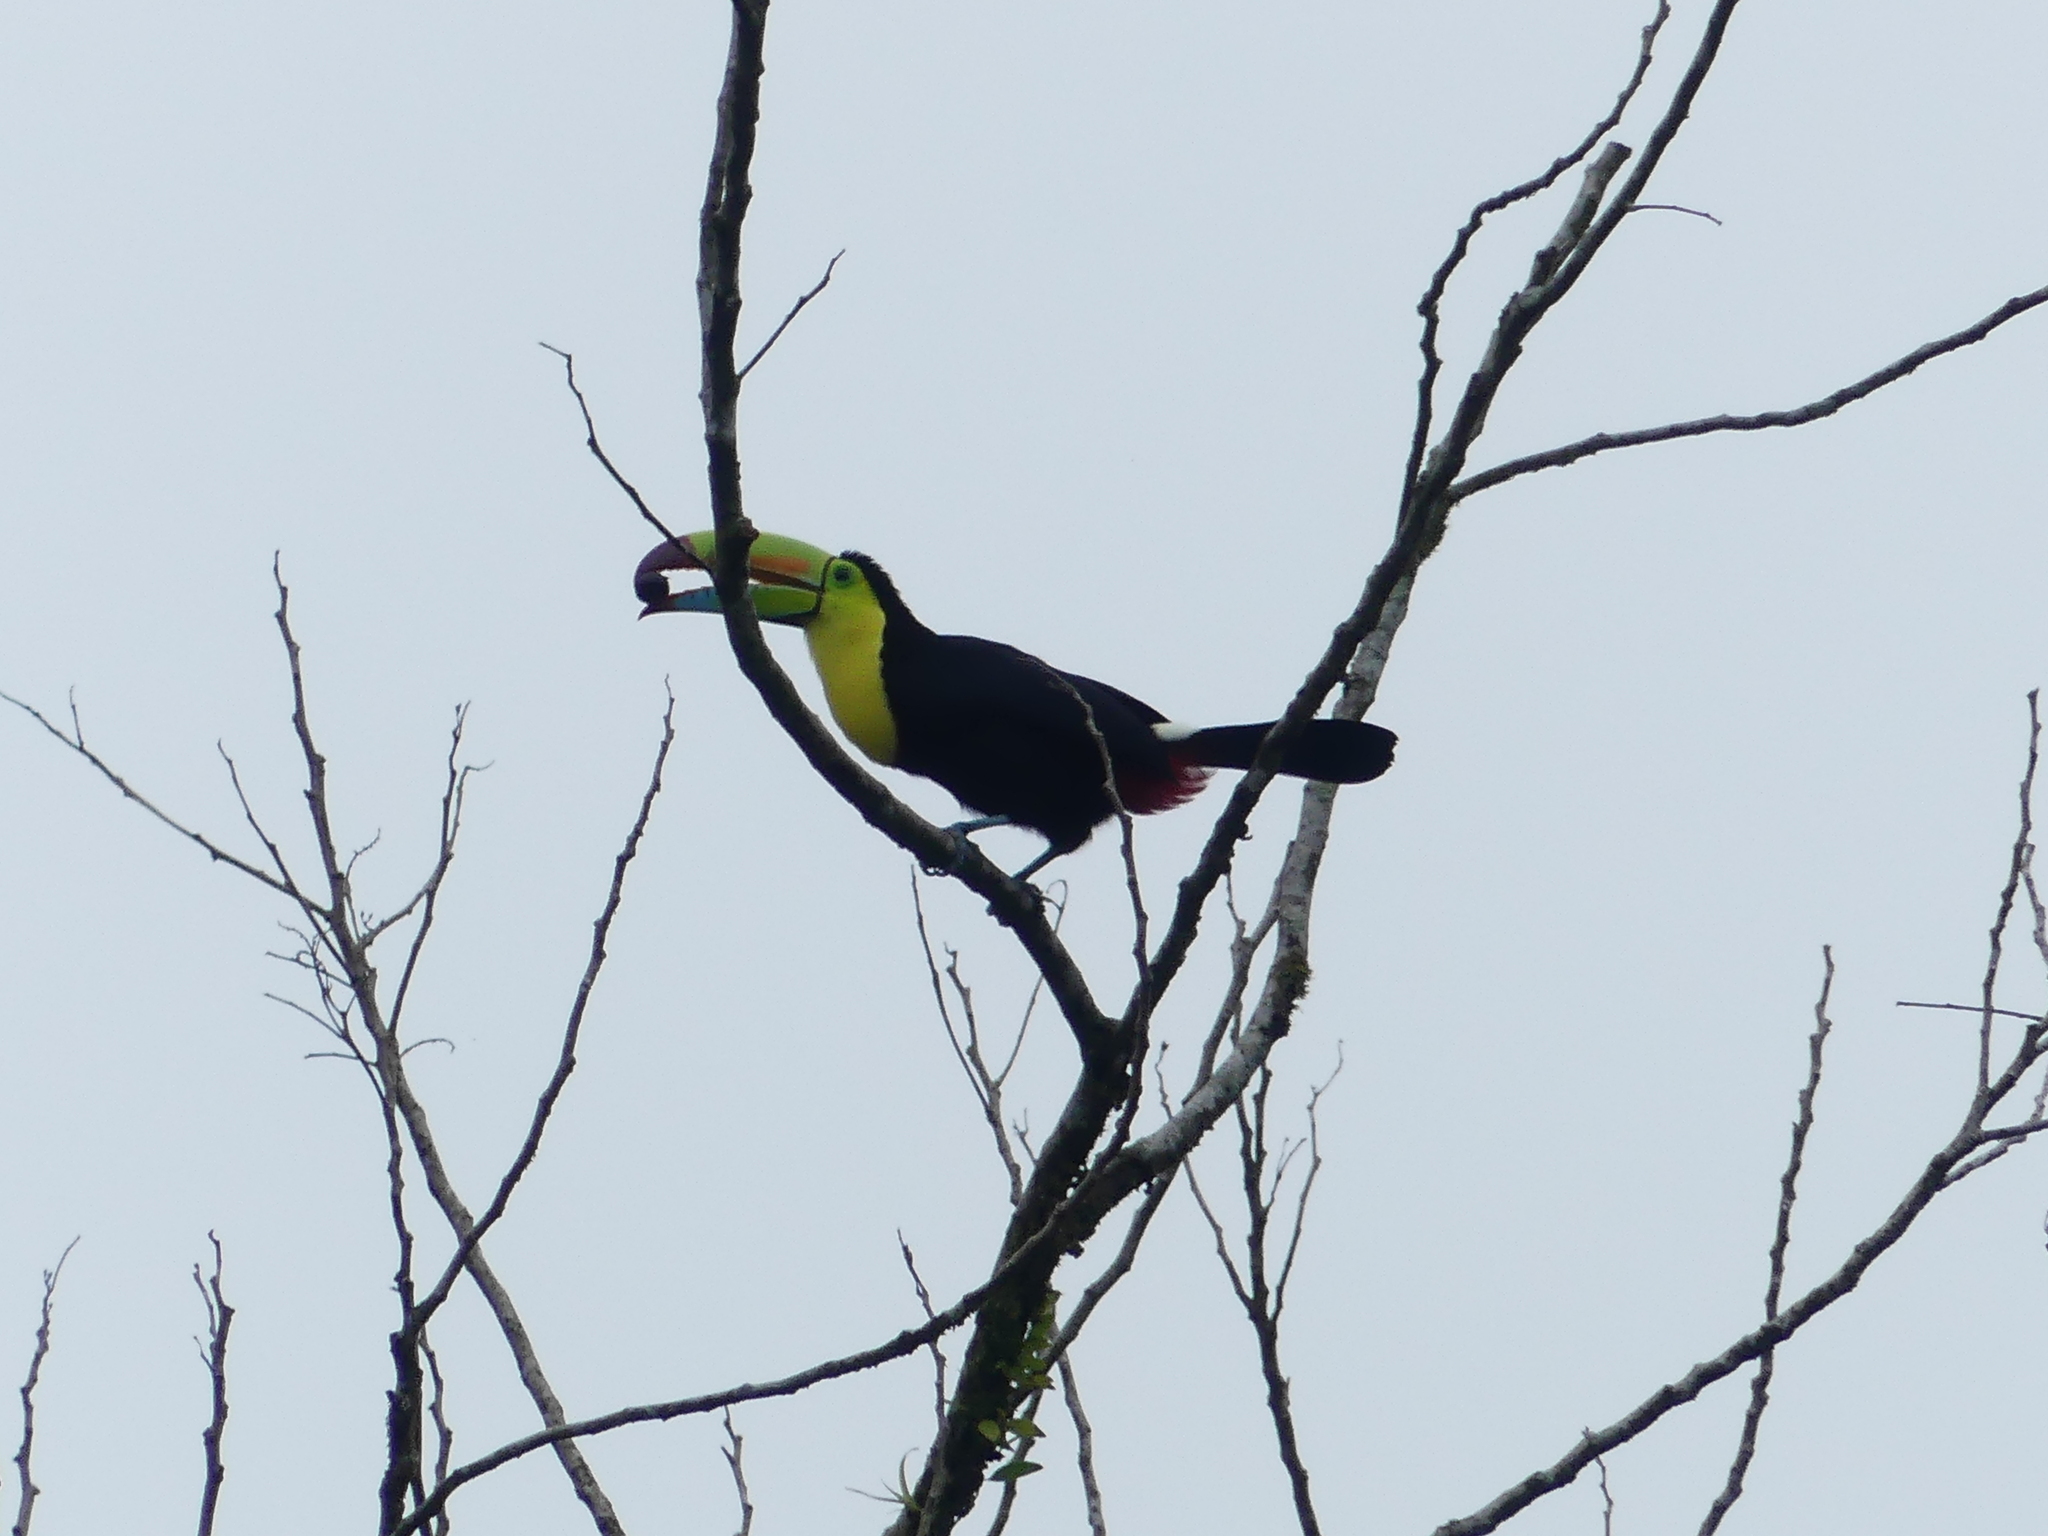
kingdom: Animalia
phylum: Chordata
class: Aves
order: Piciformes
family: Ramphastidae
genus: Ramphastos
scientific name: Ramphastos sulfuratus
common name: Keel-billed toucan
